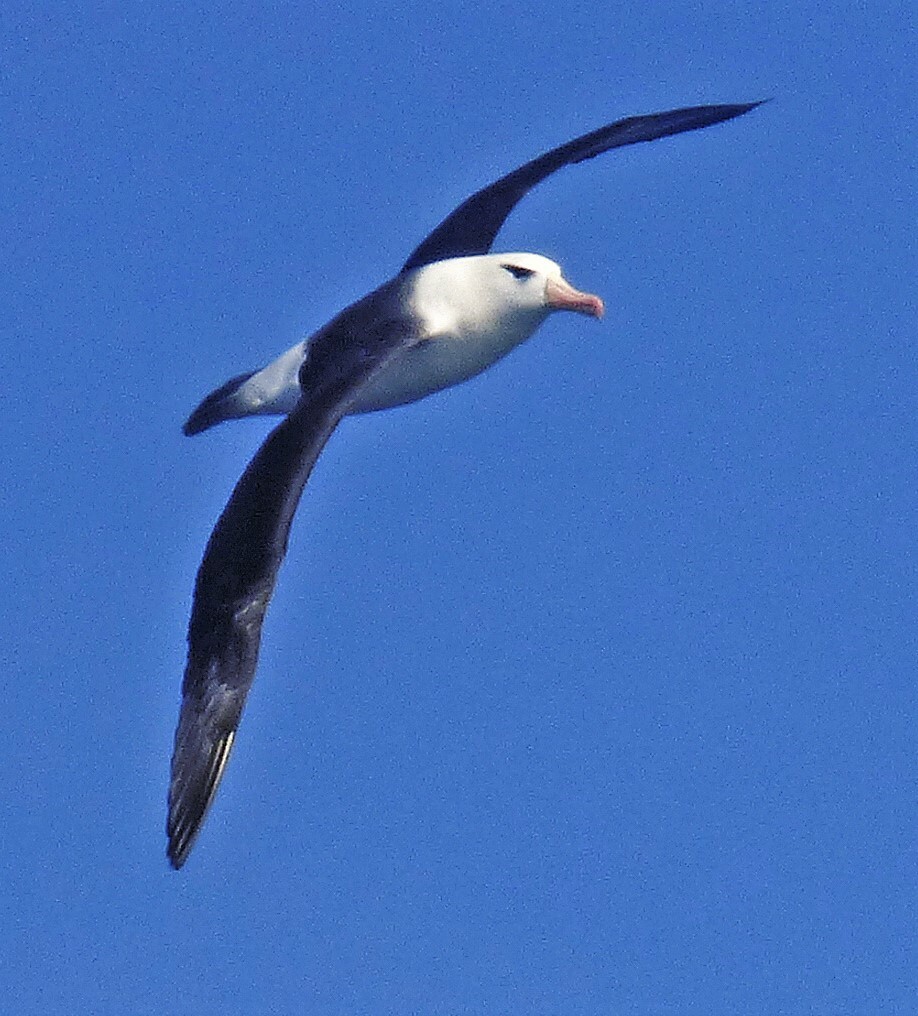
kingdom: Animalia
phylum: Chordata
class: Aves
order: Procellariiformes
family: Diomedeidae
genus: Thalassarche
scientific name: Thalassarche melanophris
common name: Black-browed albatross
